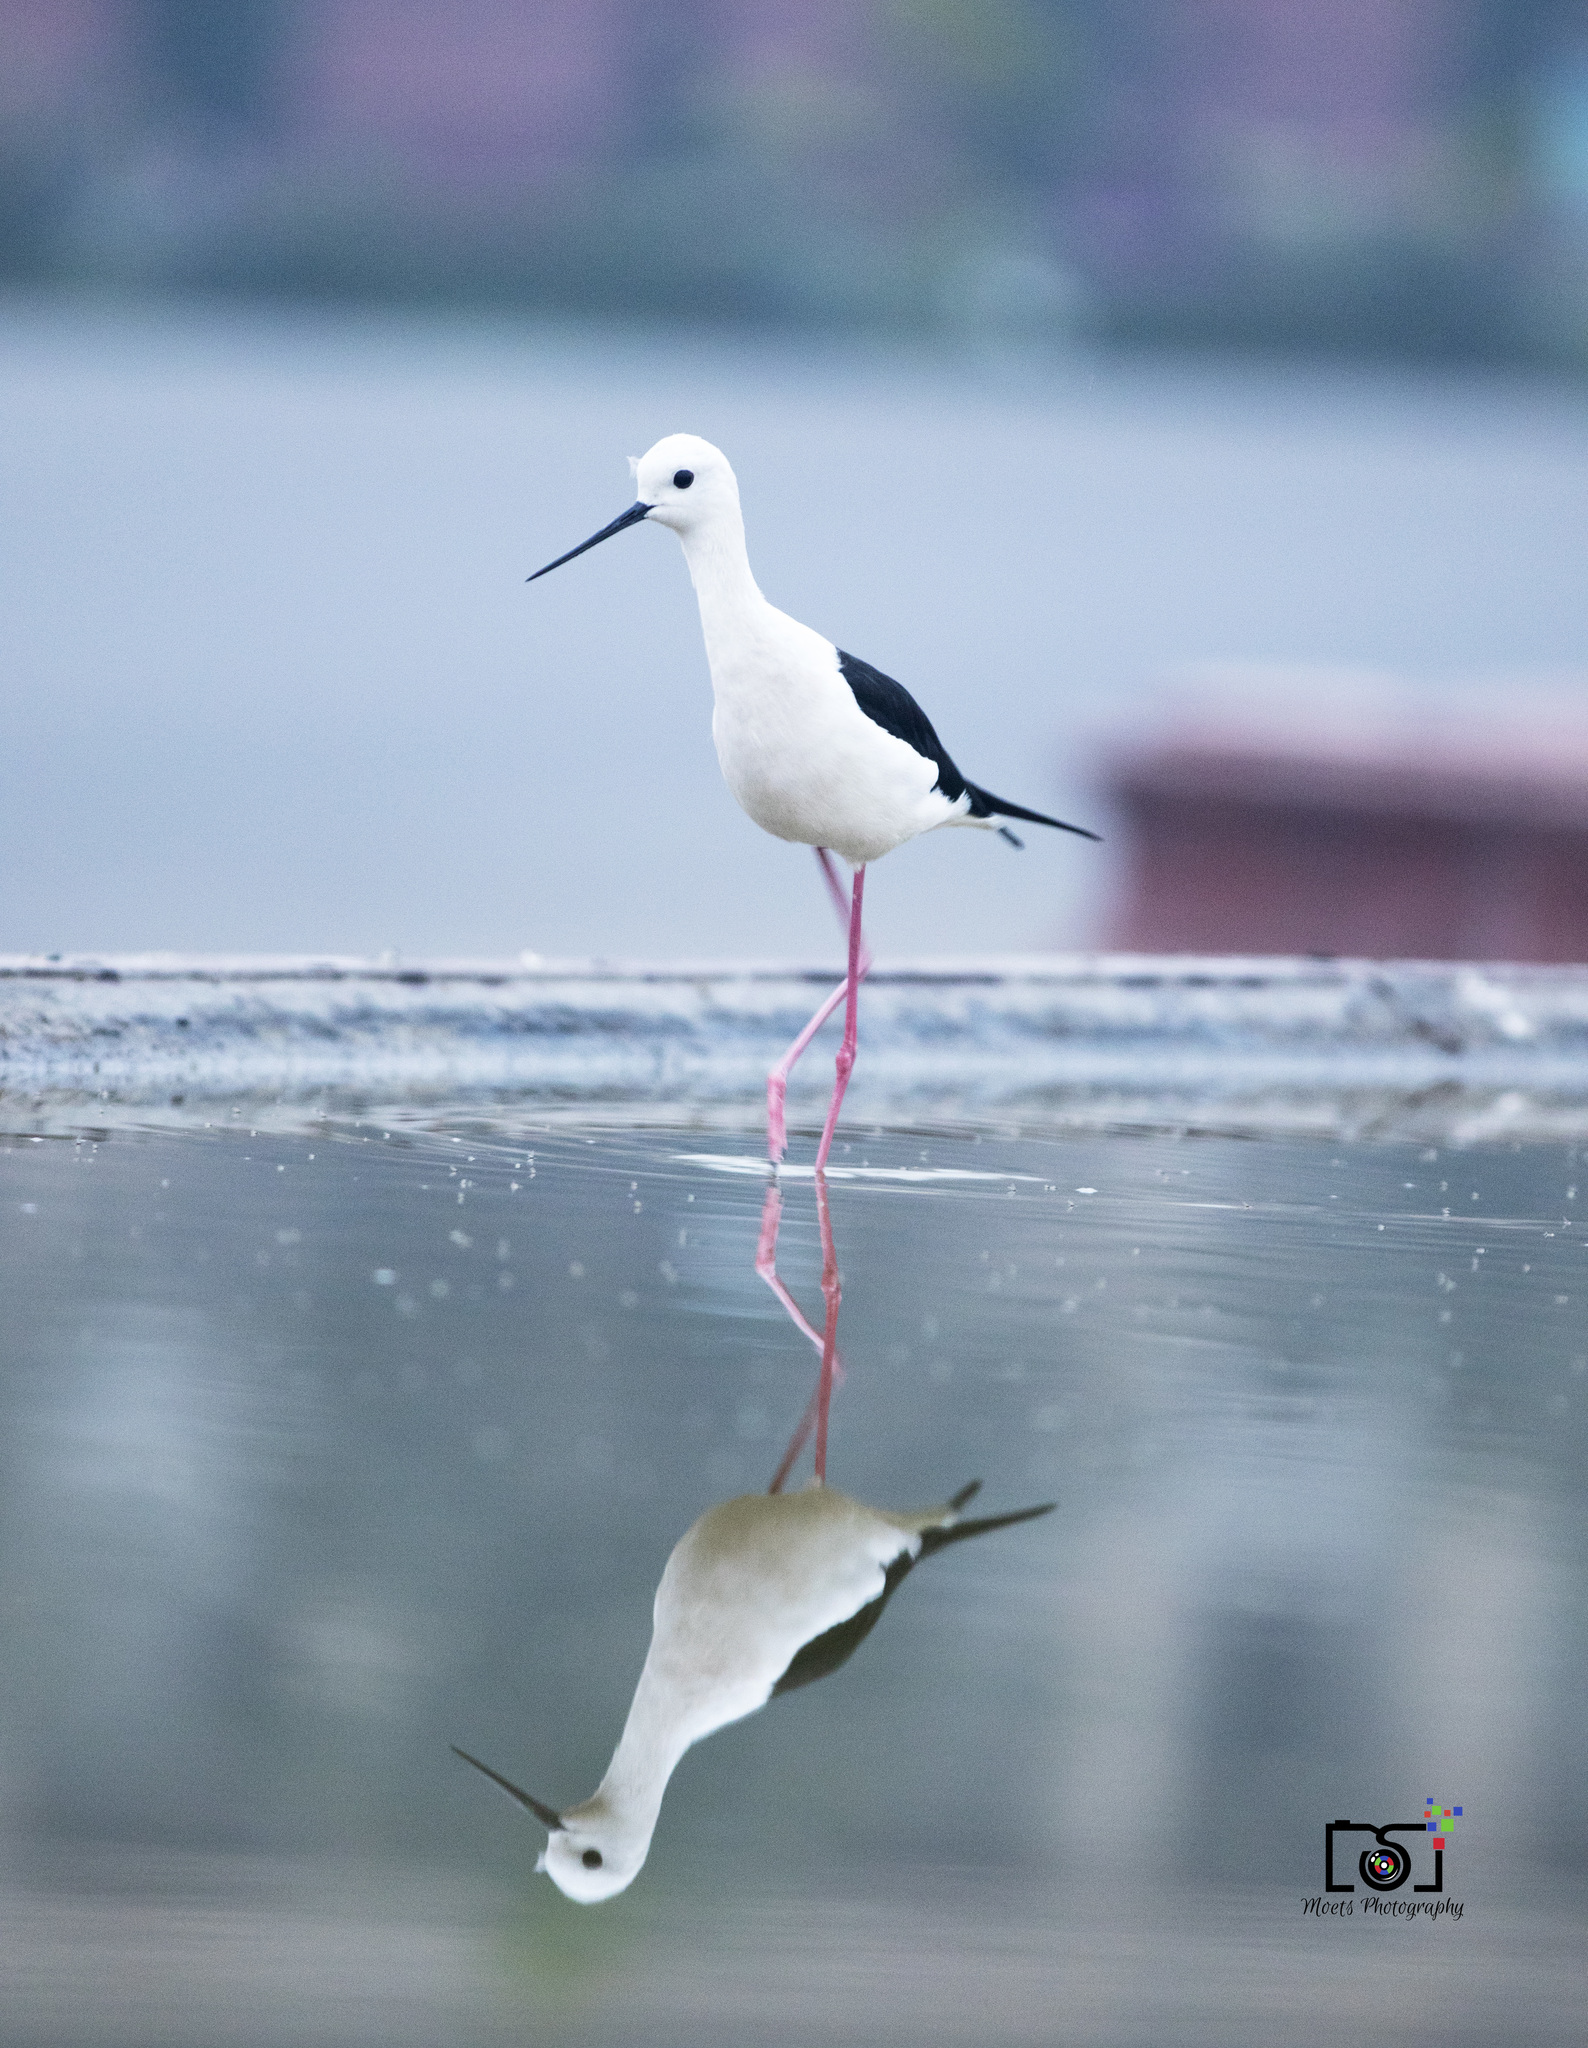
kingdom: Animalia
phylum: Chordata
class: Aves
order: Charadriiformes
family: Recurvirostridae
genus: Himantopus
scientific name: Himantopus himantopus
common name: Black-winged stilt
